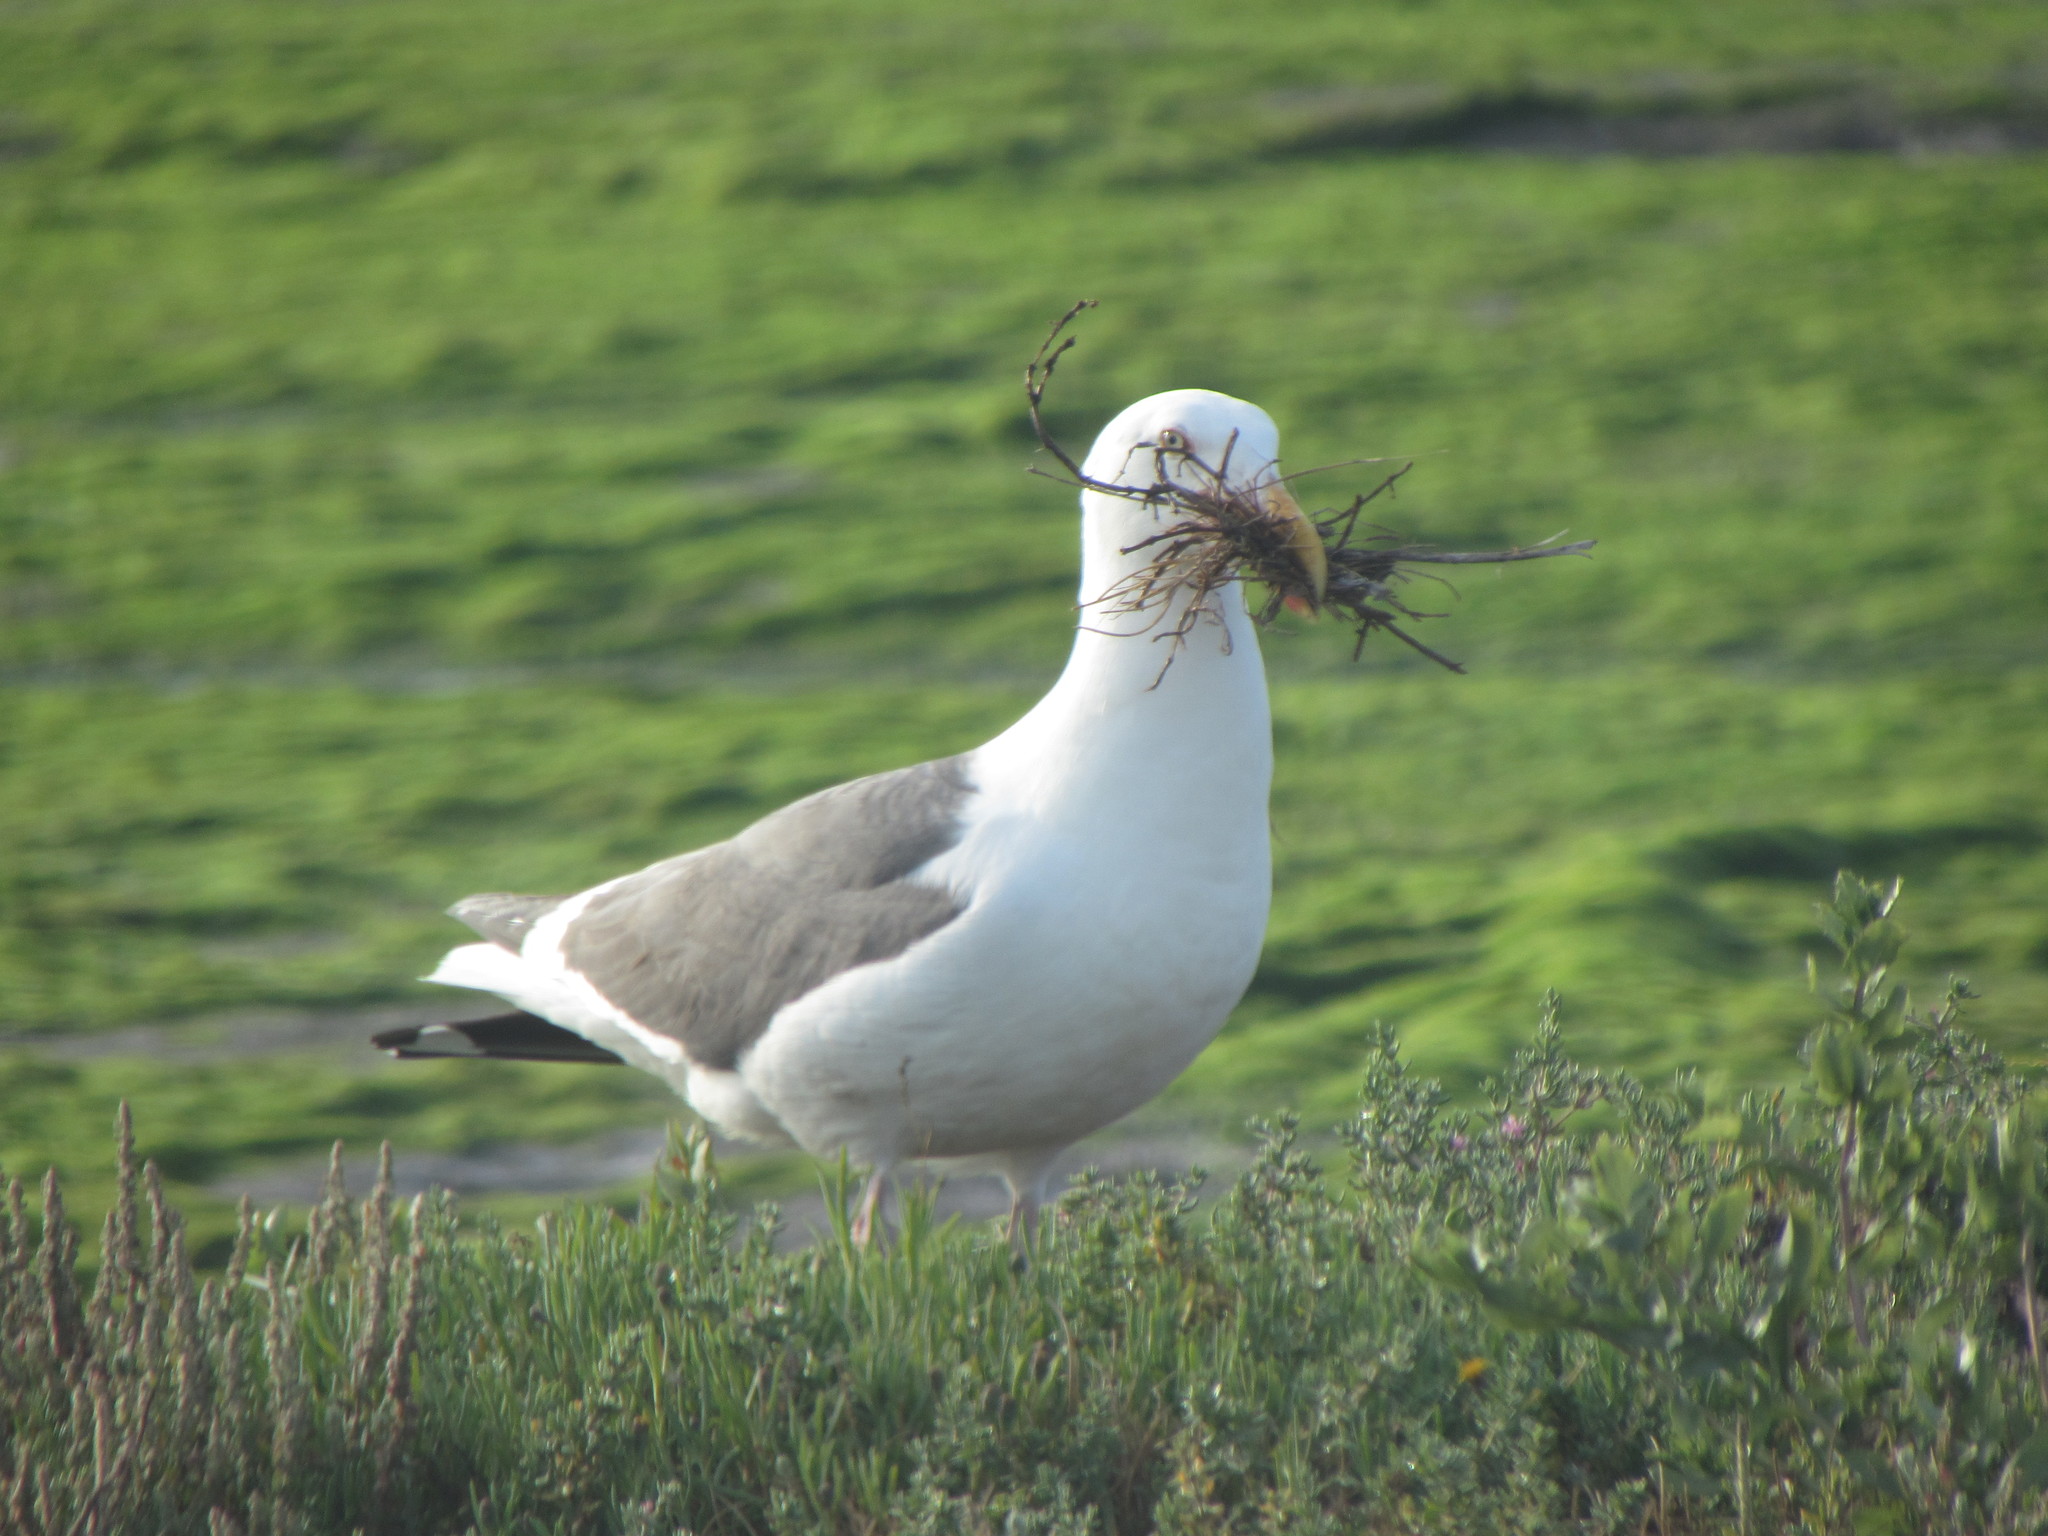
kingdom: Animalia
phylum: Chordata
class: Aves
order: Charadriiformes
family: Laridae
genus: Larus
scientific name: Larus californicus
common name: California gull
